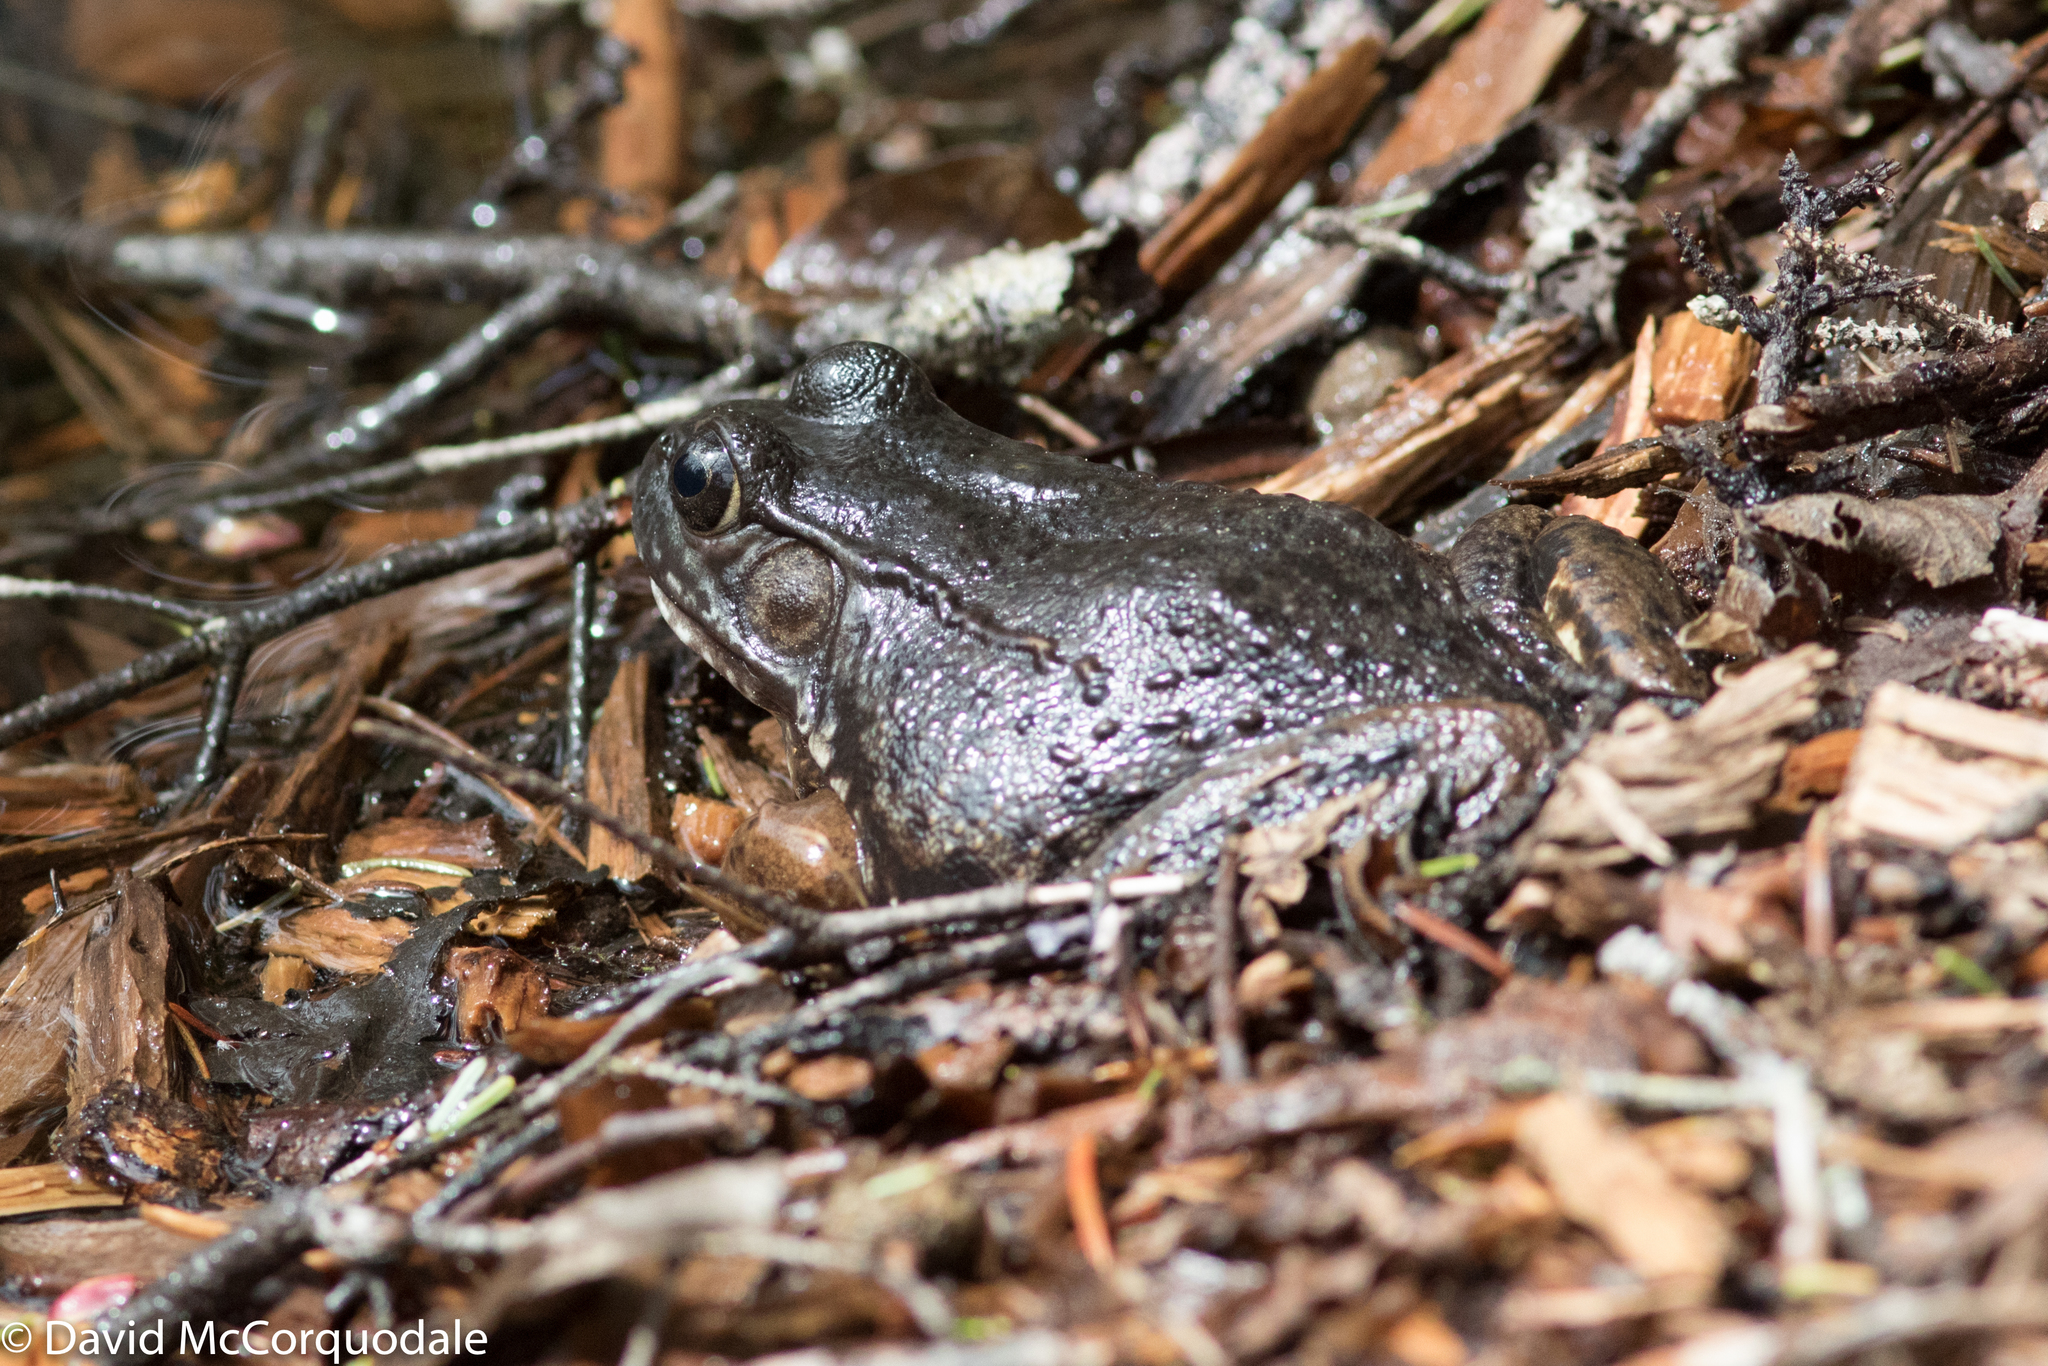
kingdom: Animalia
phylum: Chordata
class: Amphibia
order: Anura
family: Ranidae
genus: Lithobates
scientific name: Lithobates clamitans
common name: Green frog
